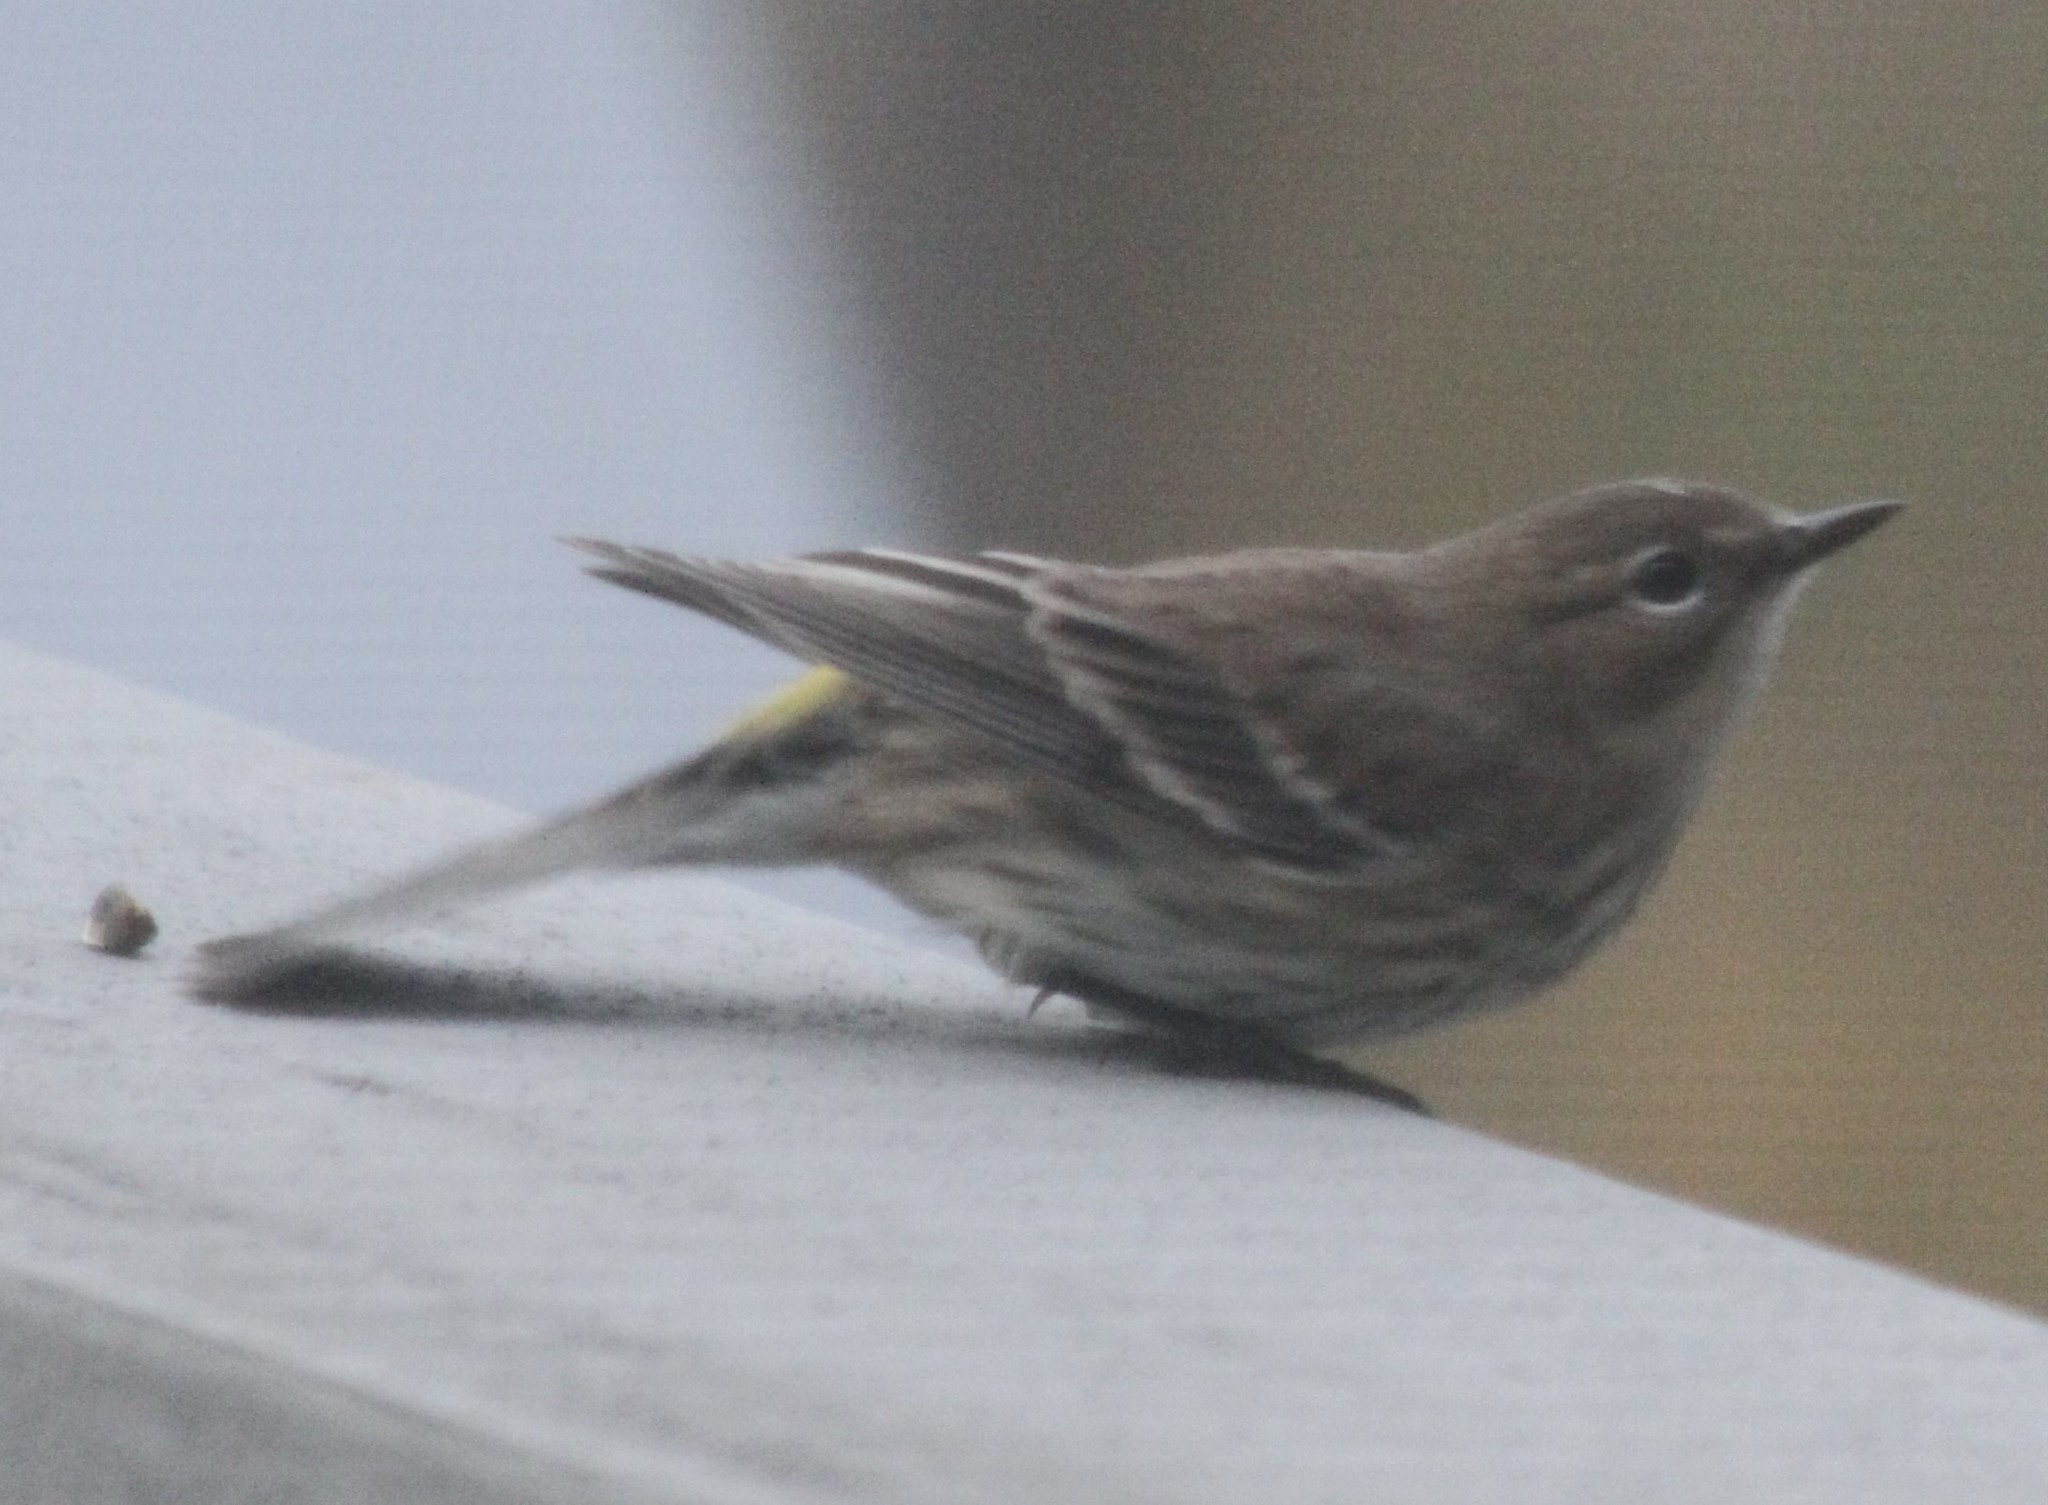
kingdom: Animalia
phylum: Chordata
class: Aves
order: Passeriformes
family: Parulidae
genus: Setophaga
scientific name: Setophaga coronata
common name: Myrtle warbler
